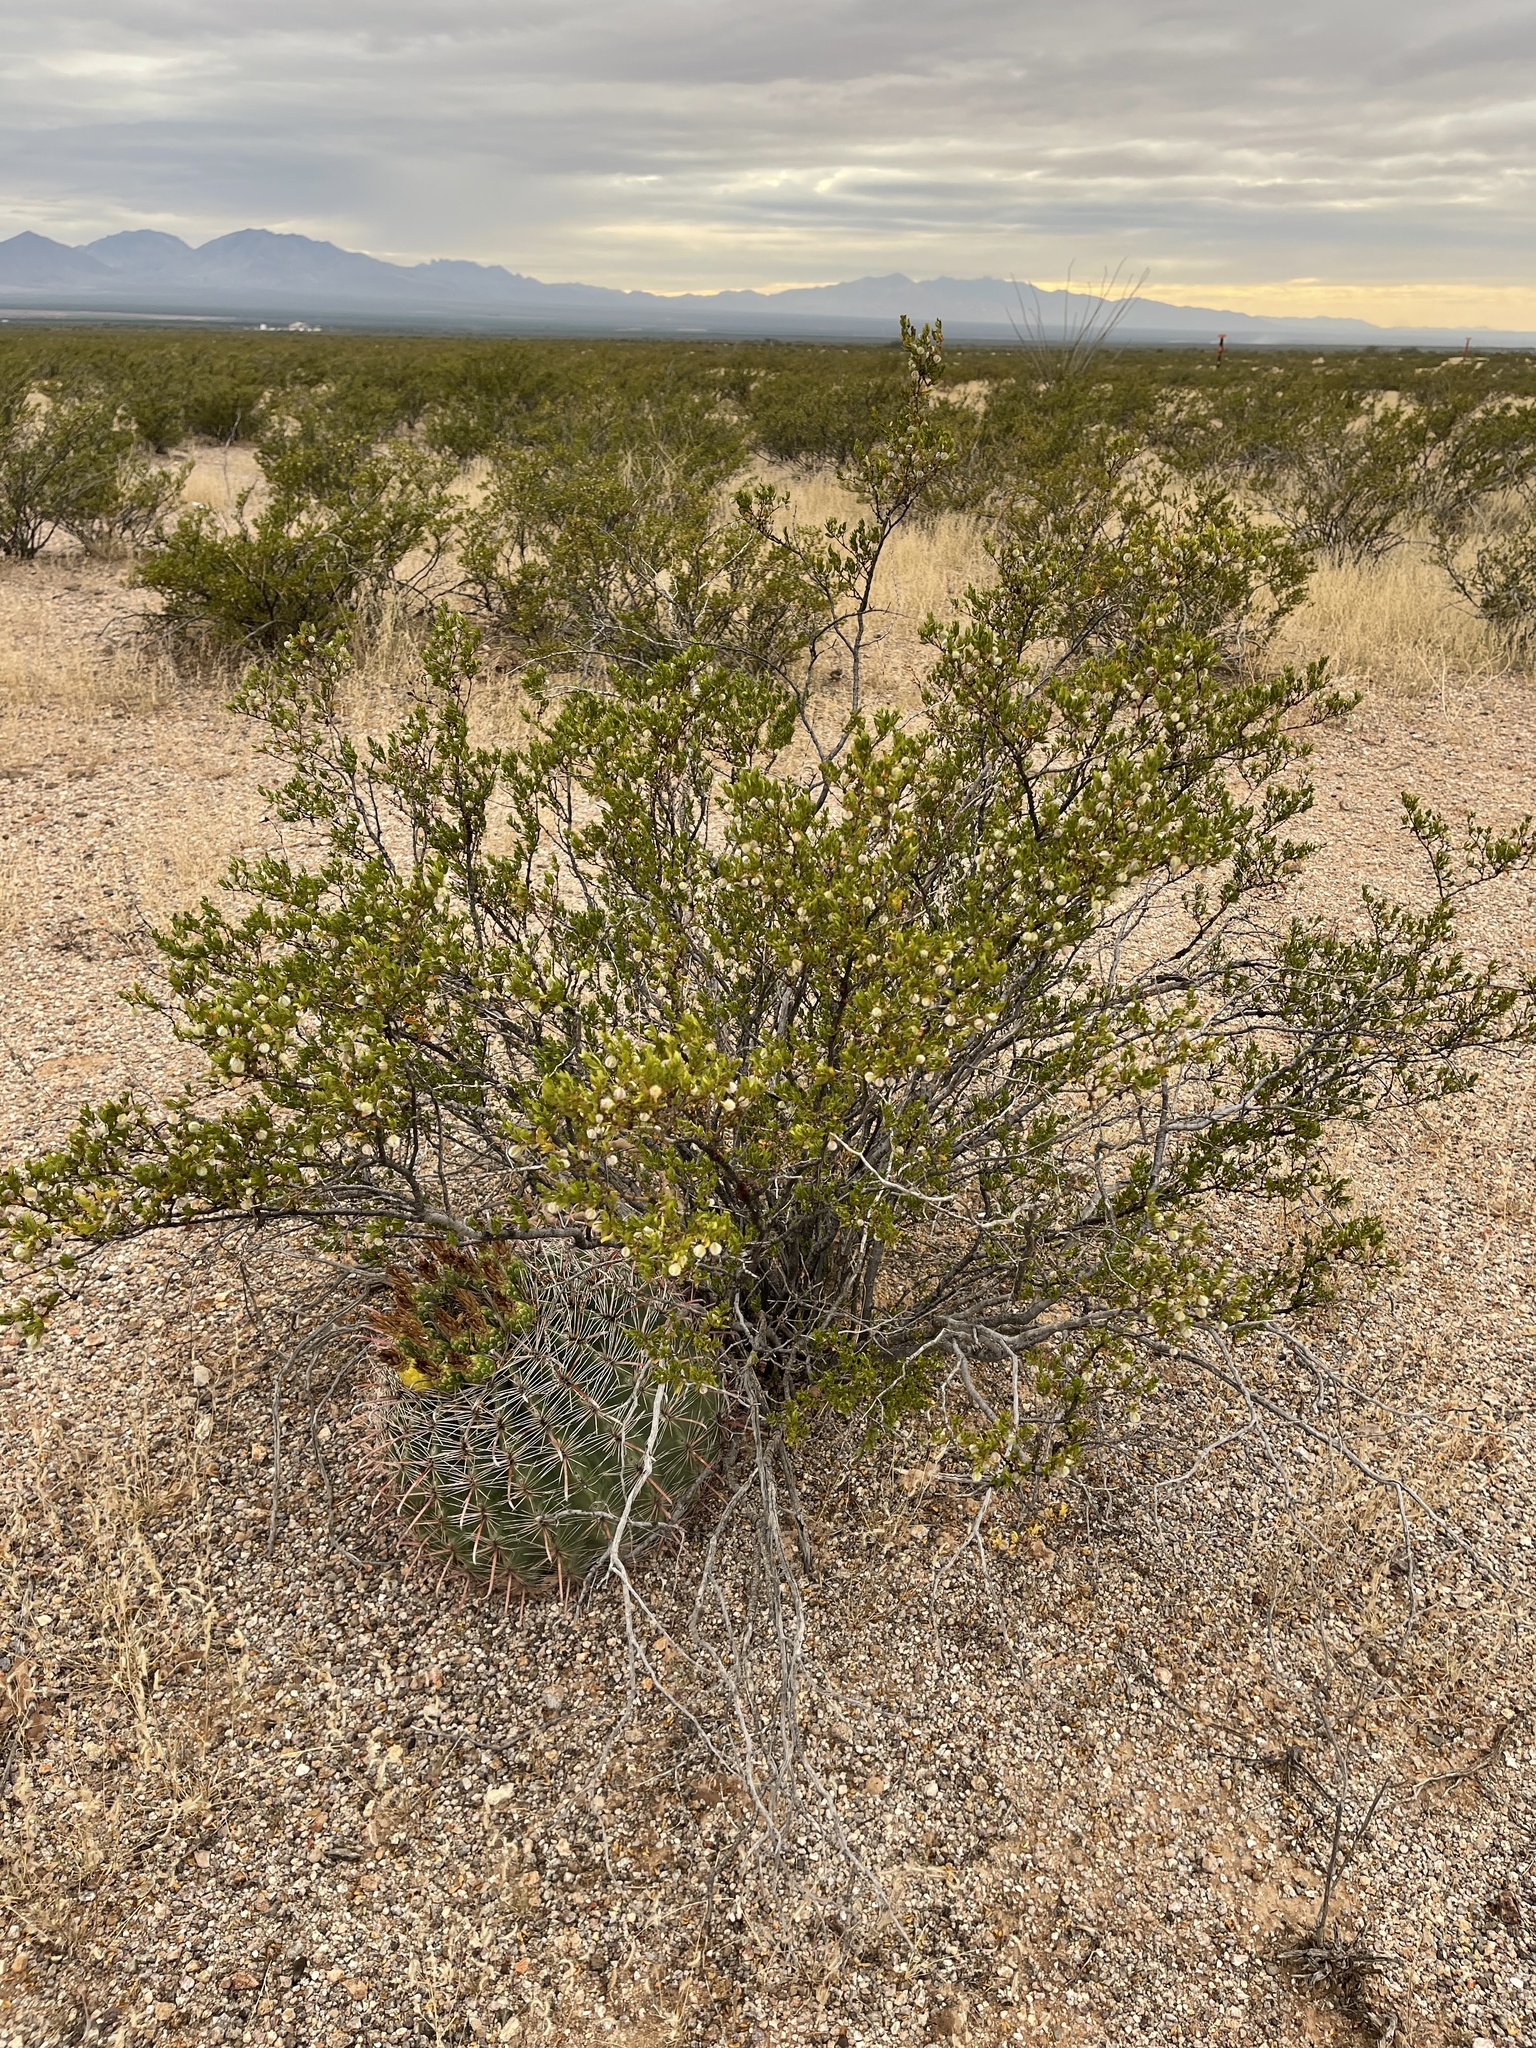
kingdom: Plantae
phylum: Tracheophyta
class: Magnoliopsida
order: Zygophyllales
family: Zygophyllaceae
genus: Larrea
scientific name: Larrea tridentata
